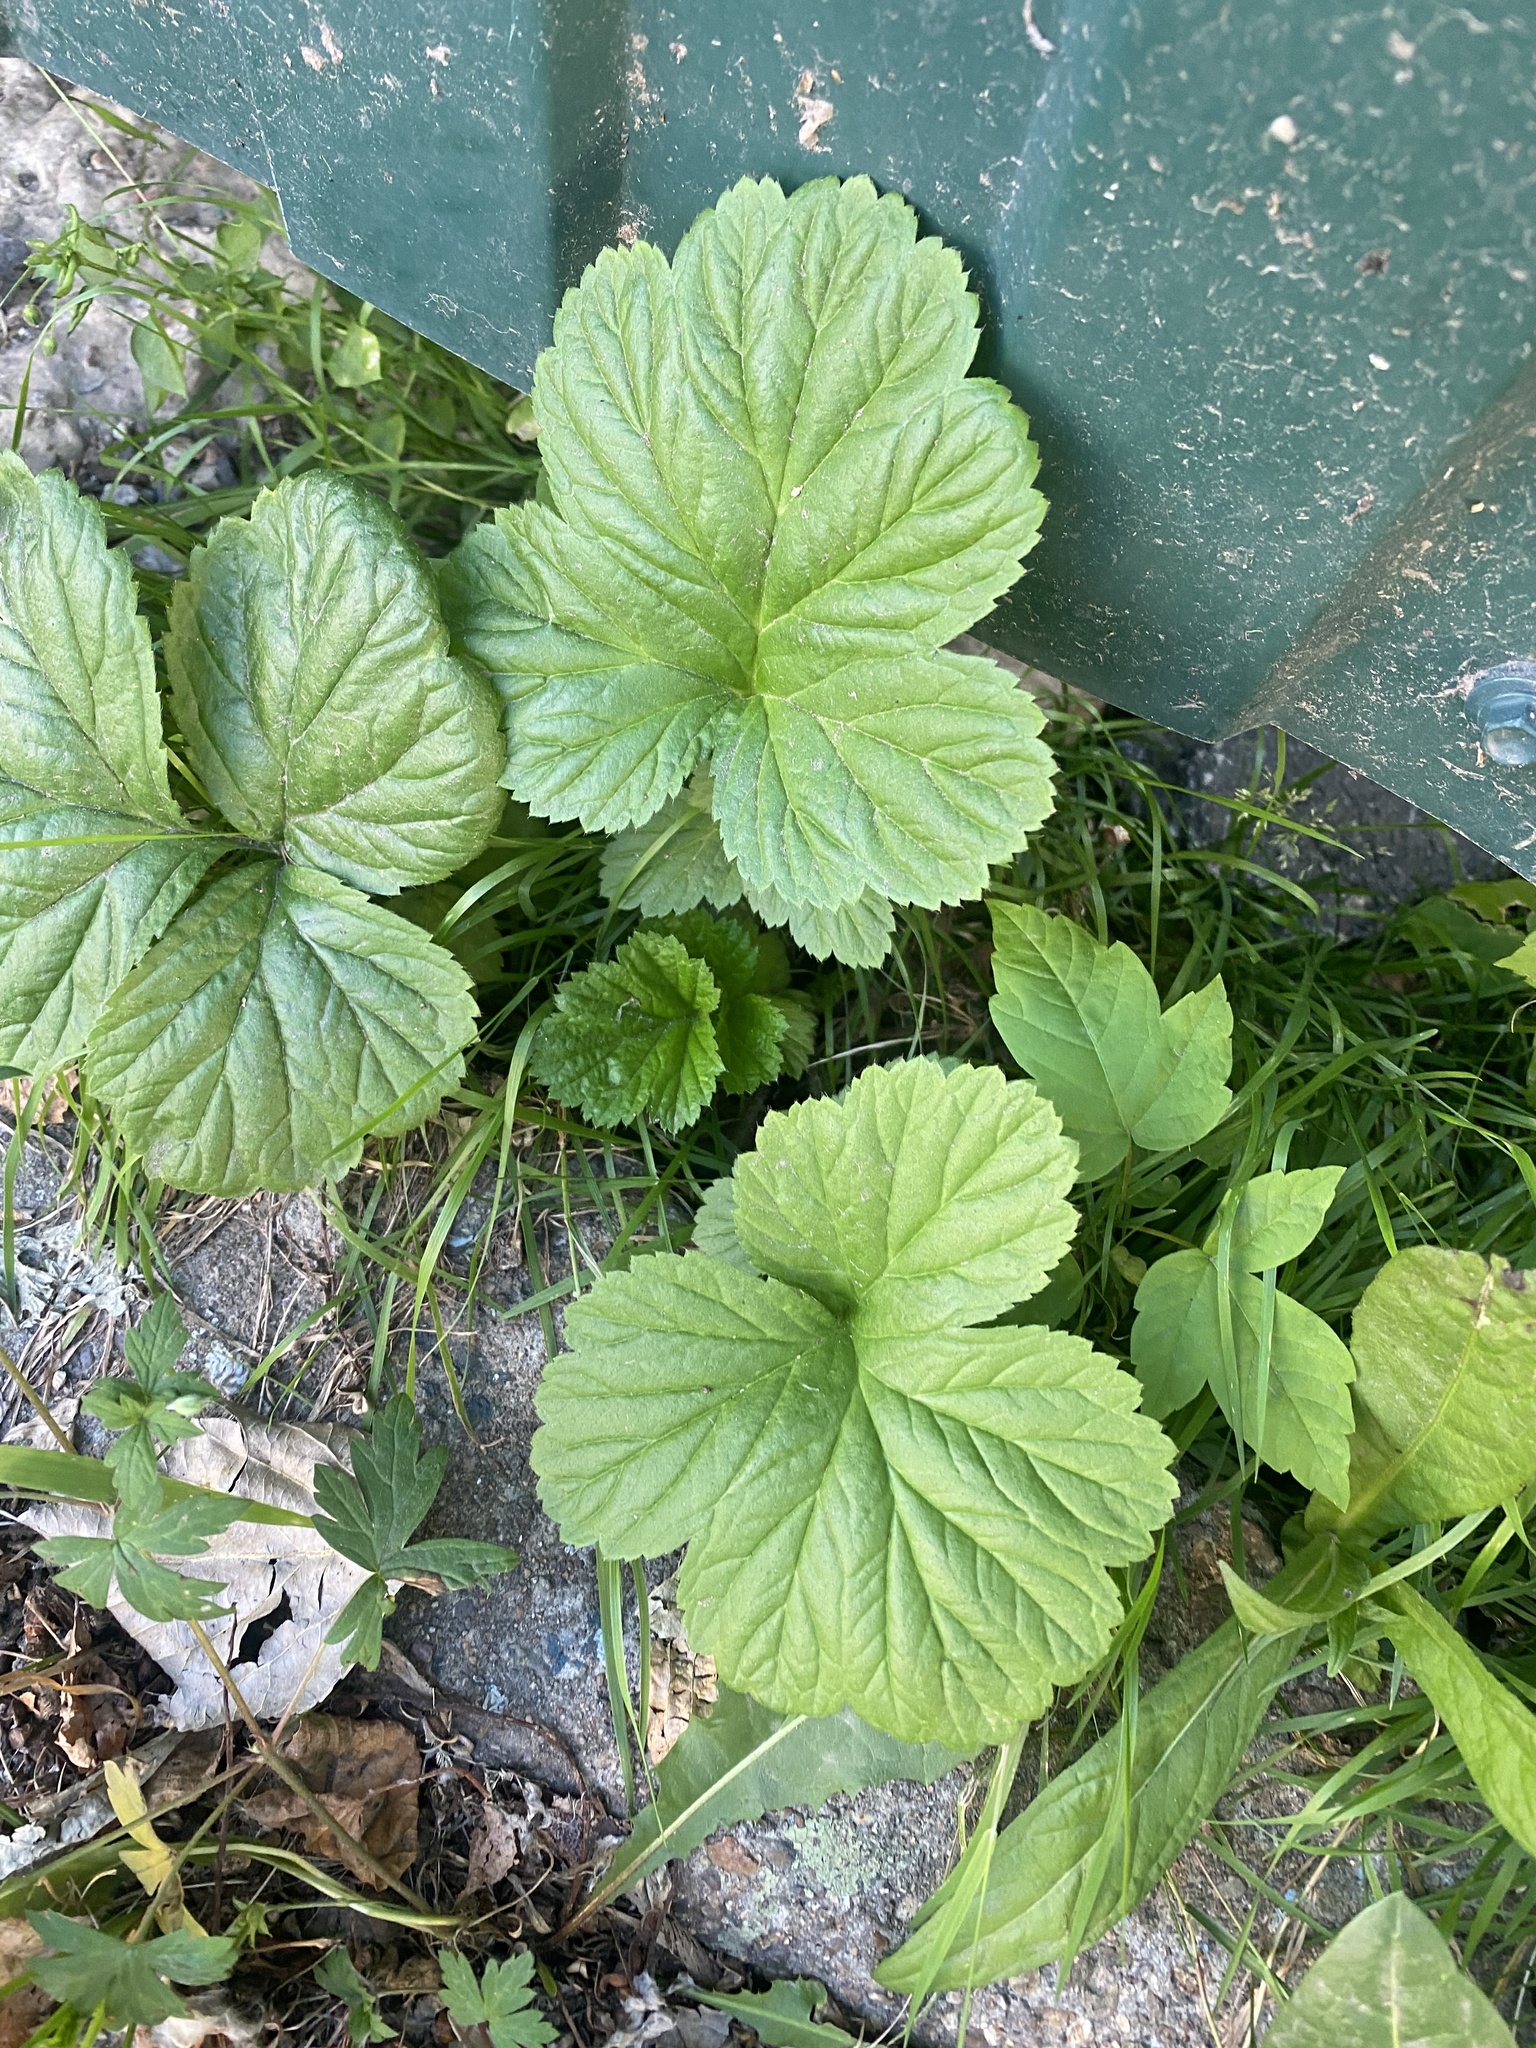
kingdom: Plantae
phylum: Tracheophyta
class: Magnoliopsida
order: Rosales
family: Rosaceae
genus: Geum
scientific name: Geum aleppicum
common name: Yellow avens
